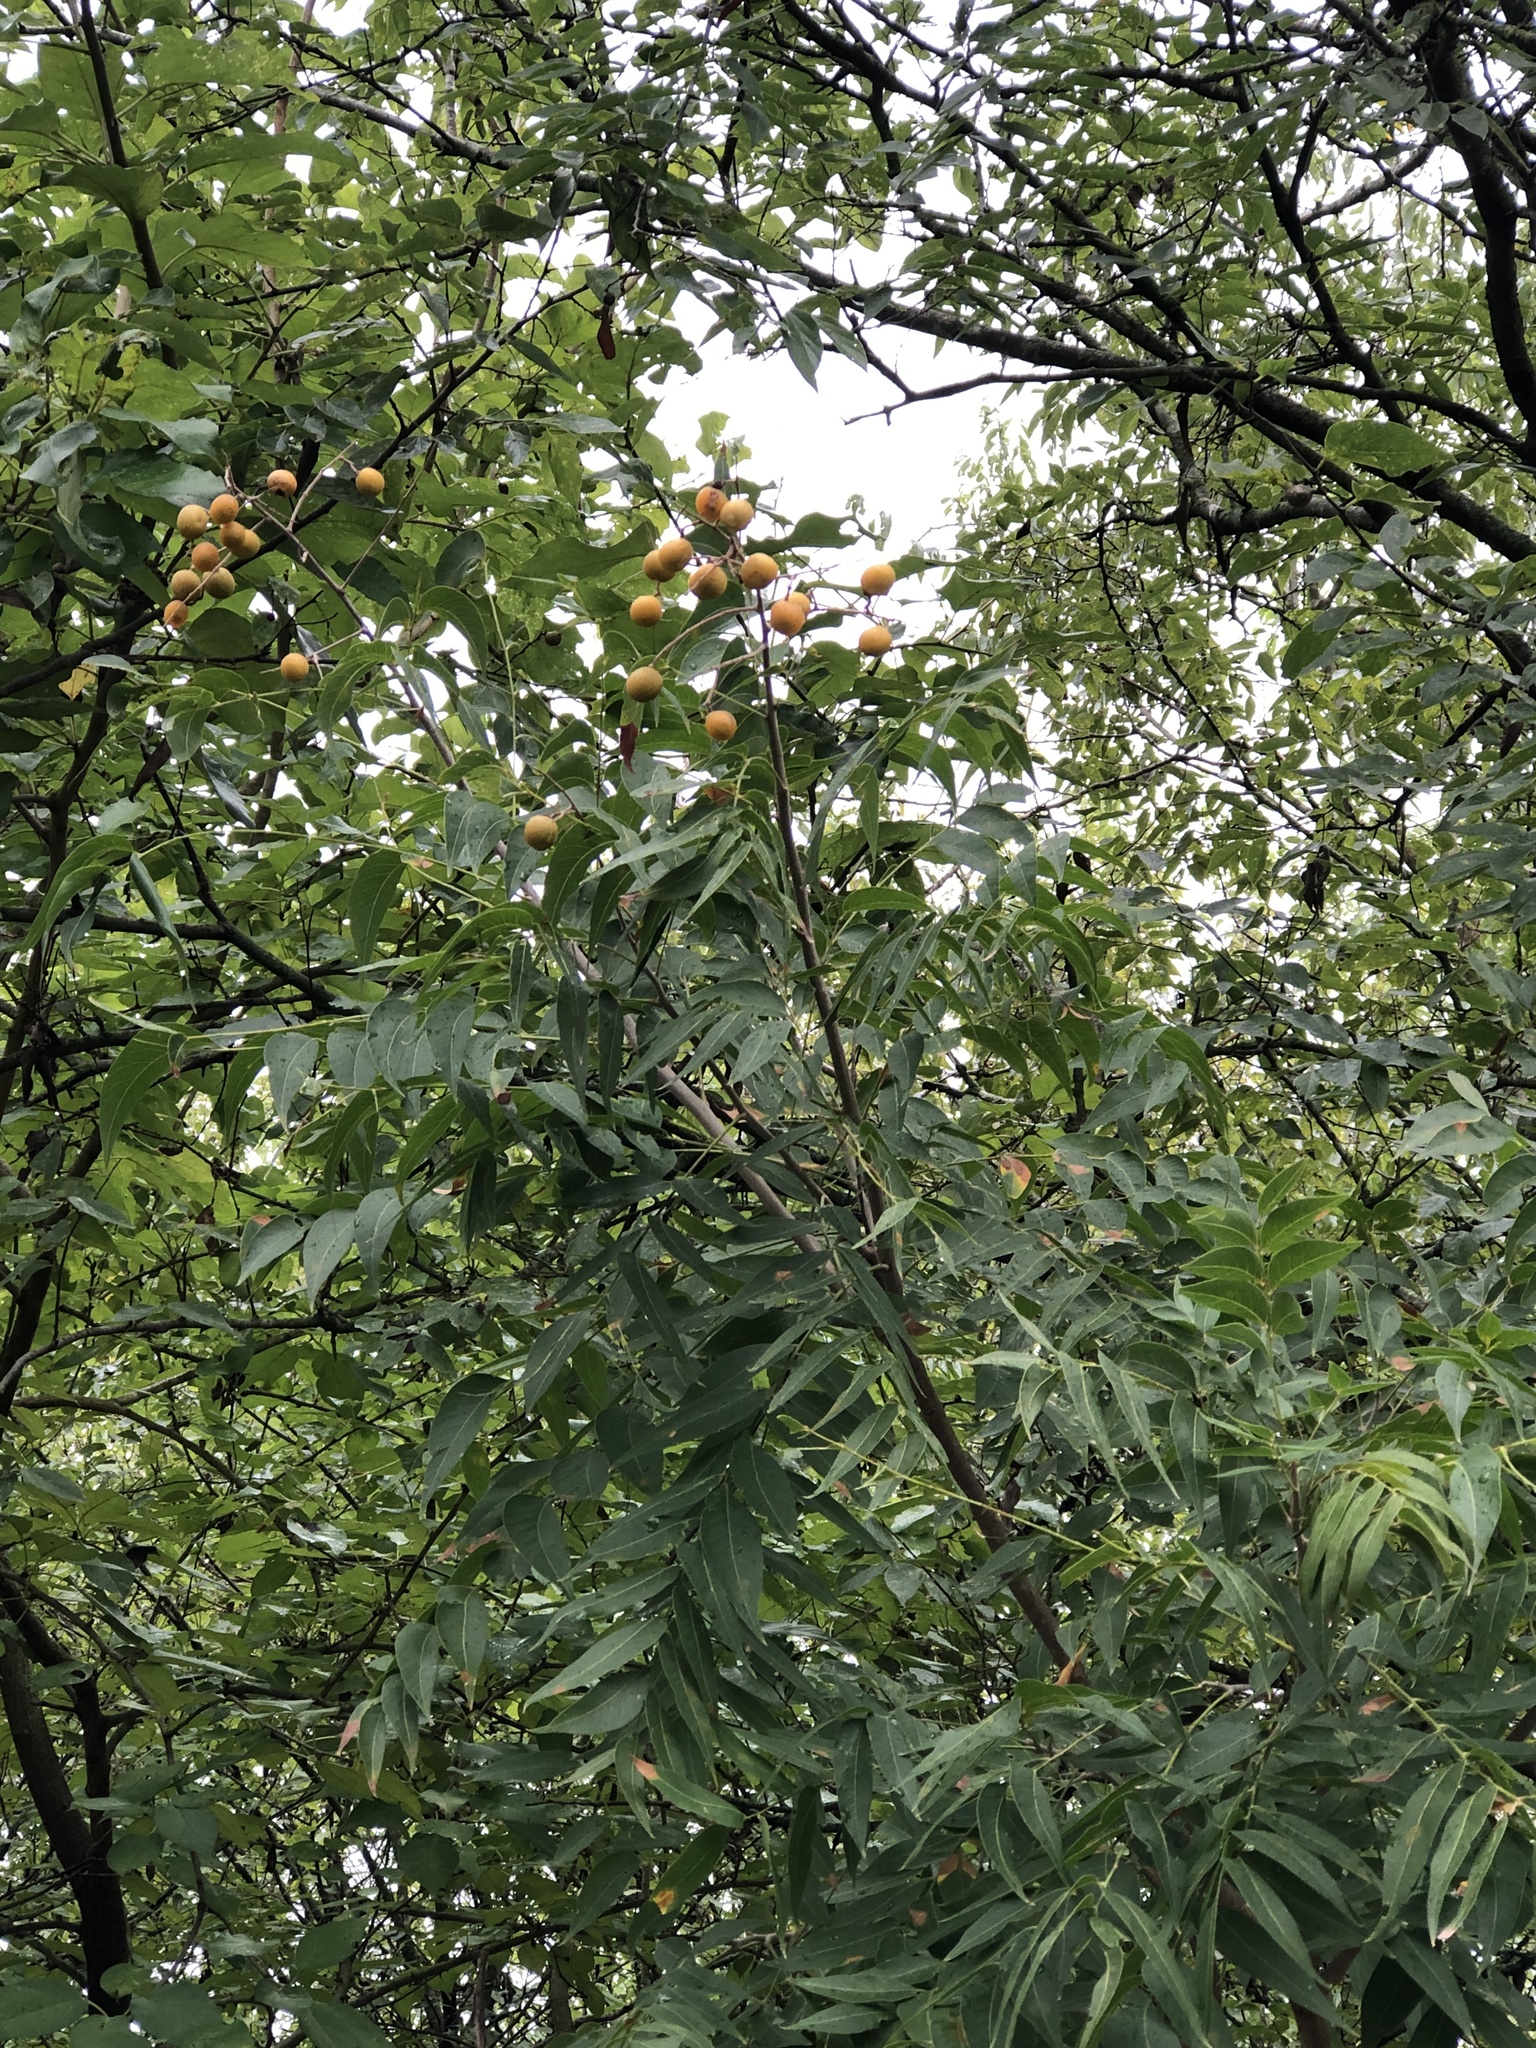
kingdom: Plantae
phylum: Tracheophyta
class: Magnoliopsida
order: Sapindales
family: Sapindaceae
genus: Sapindus
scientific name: Sapindus drummondii
